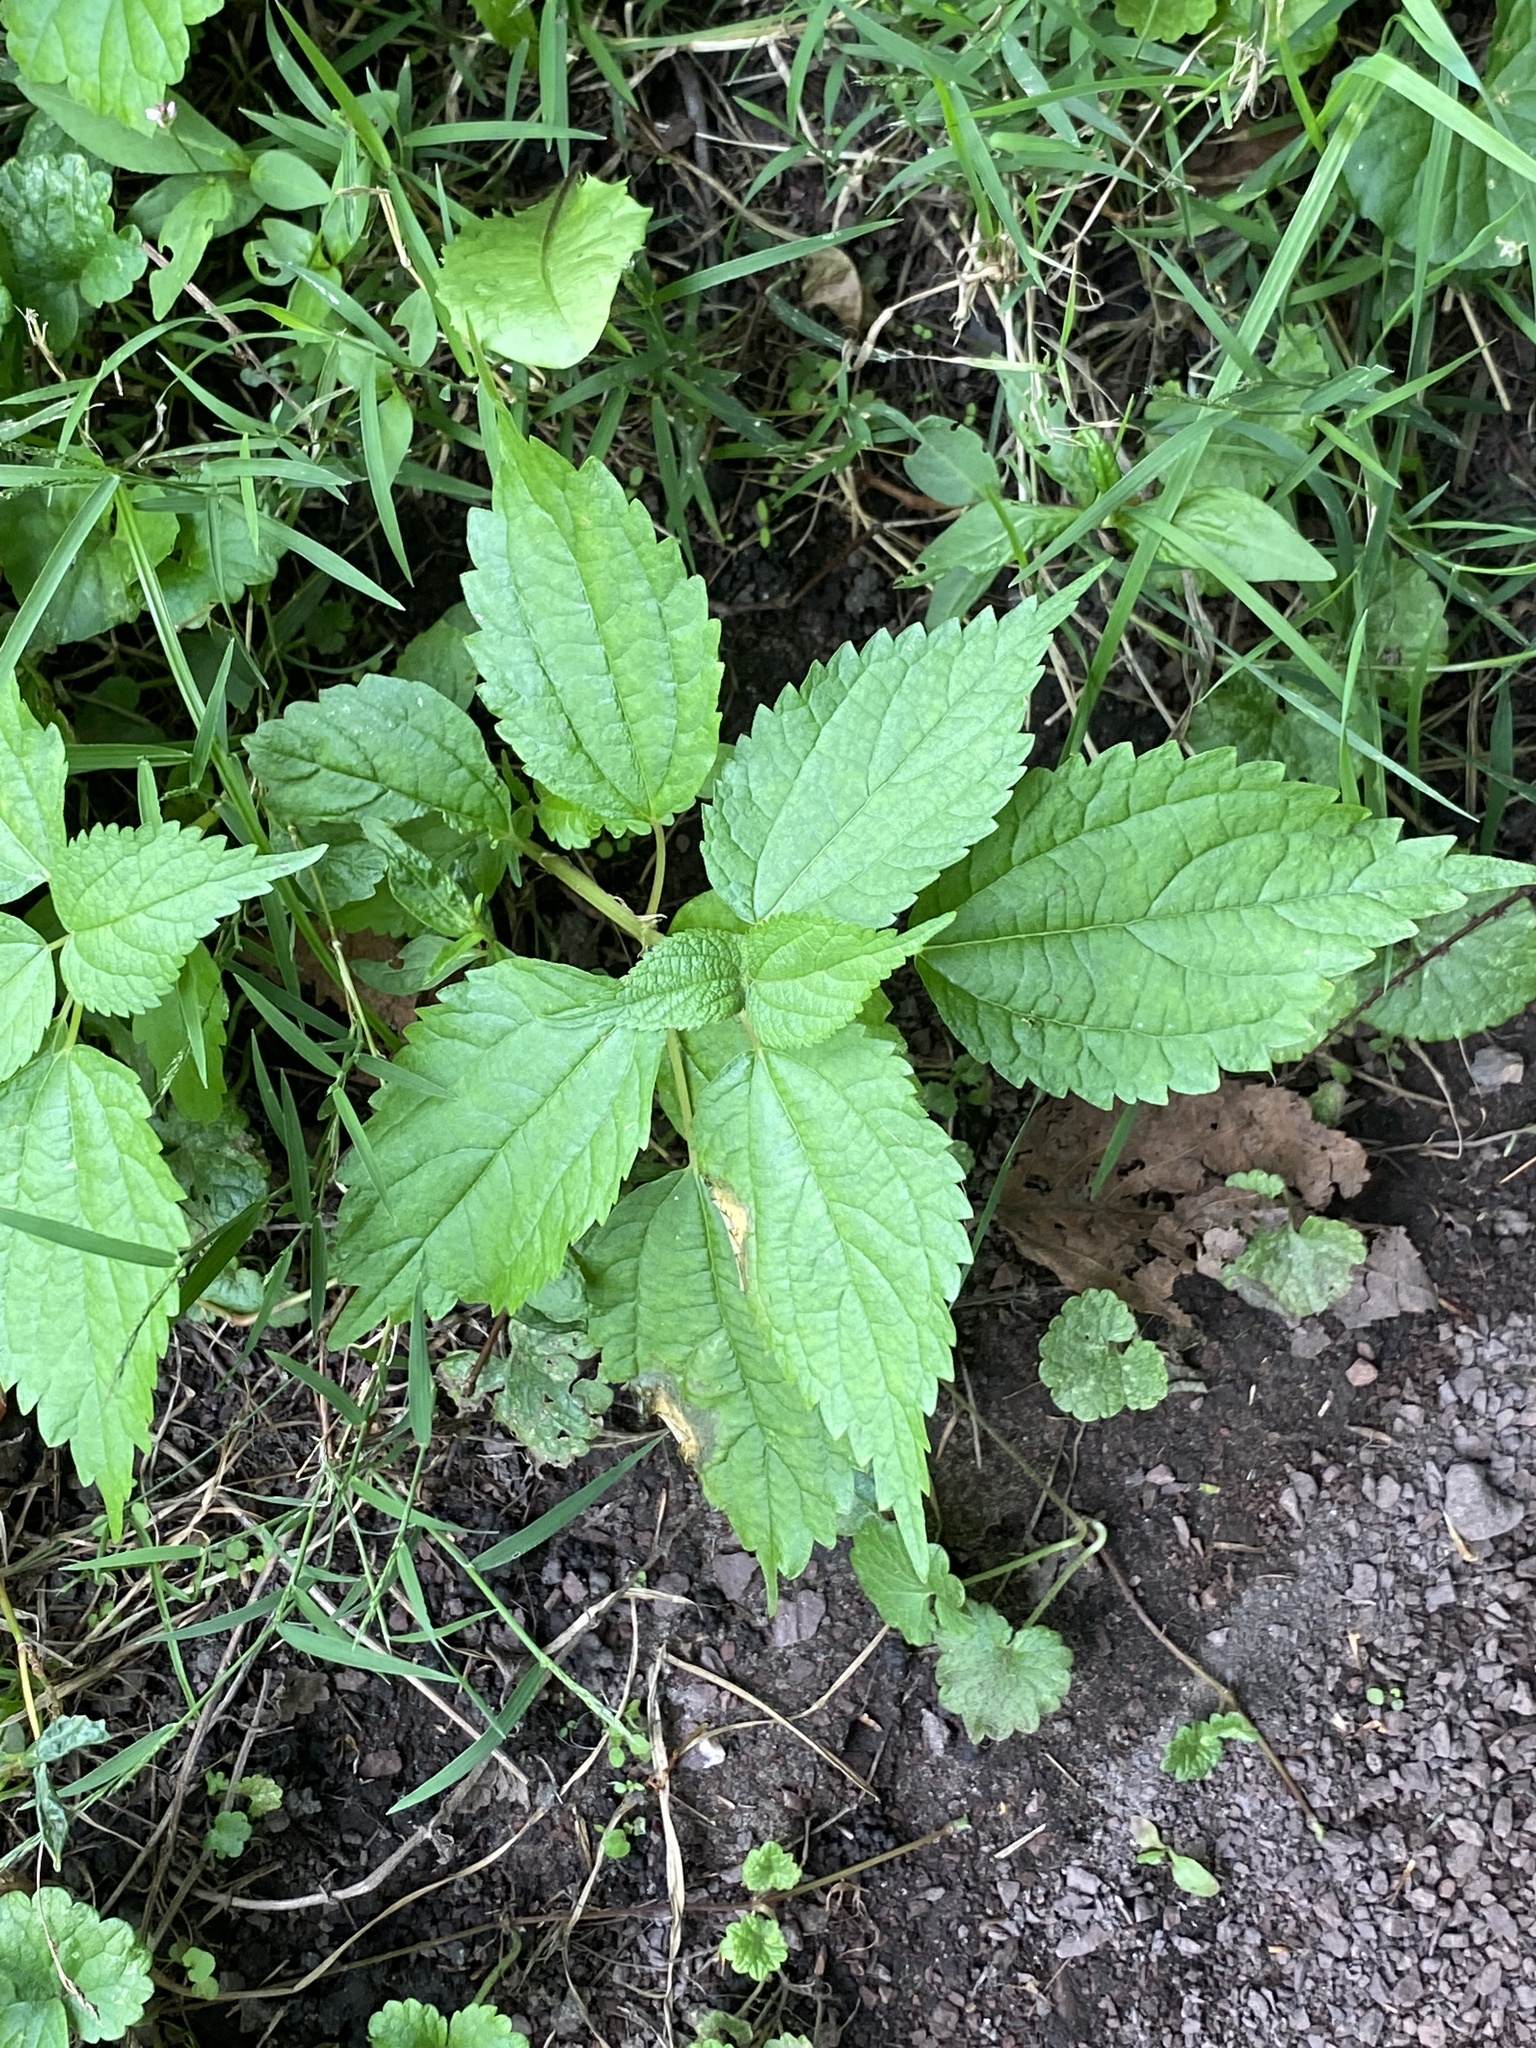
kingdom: Plantae
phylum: Tracheophyta
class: Magnoliopsida
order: Rosales
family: Urticaceae
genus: Pilea
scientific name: Pilea pumila
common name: Clearweed
